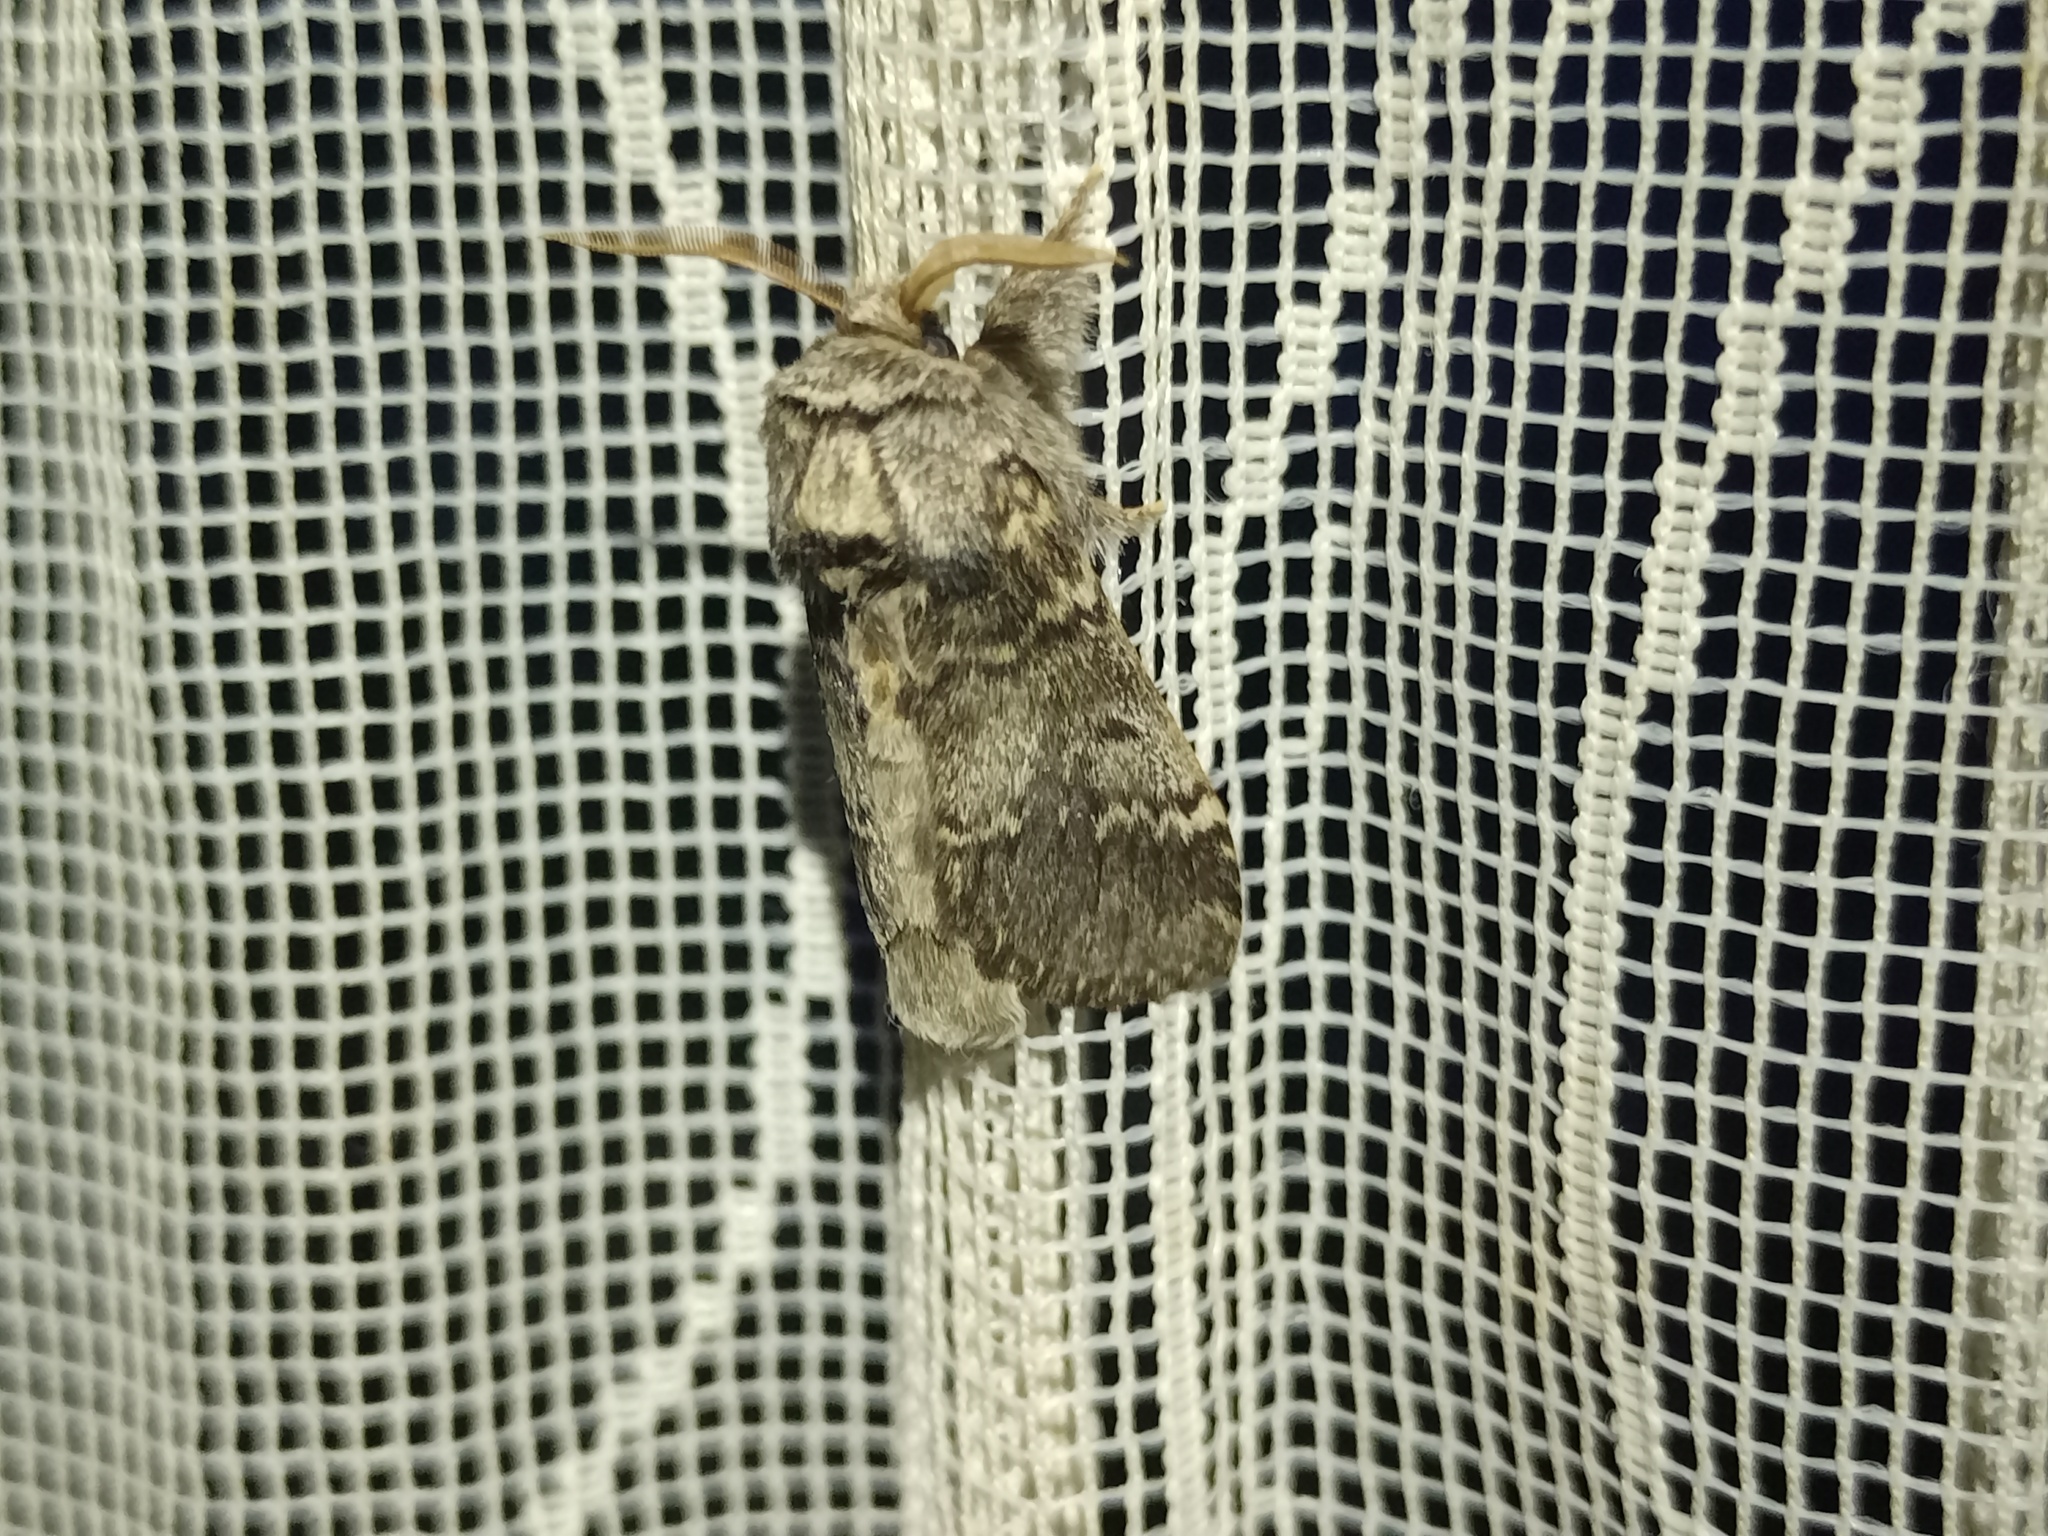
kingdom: Animalia
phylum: Arthropoda
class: Insecta
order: Lepidoptera
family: Notodontidae
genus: Drymonia
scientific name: Drymonia ruficornis
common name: Lunar marbled brown
